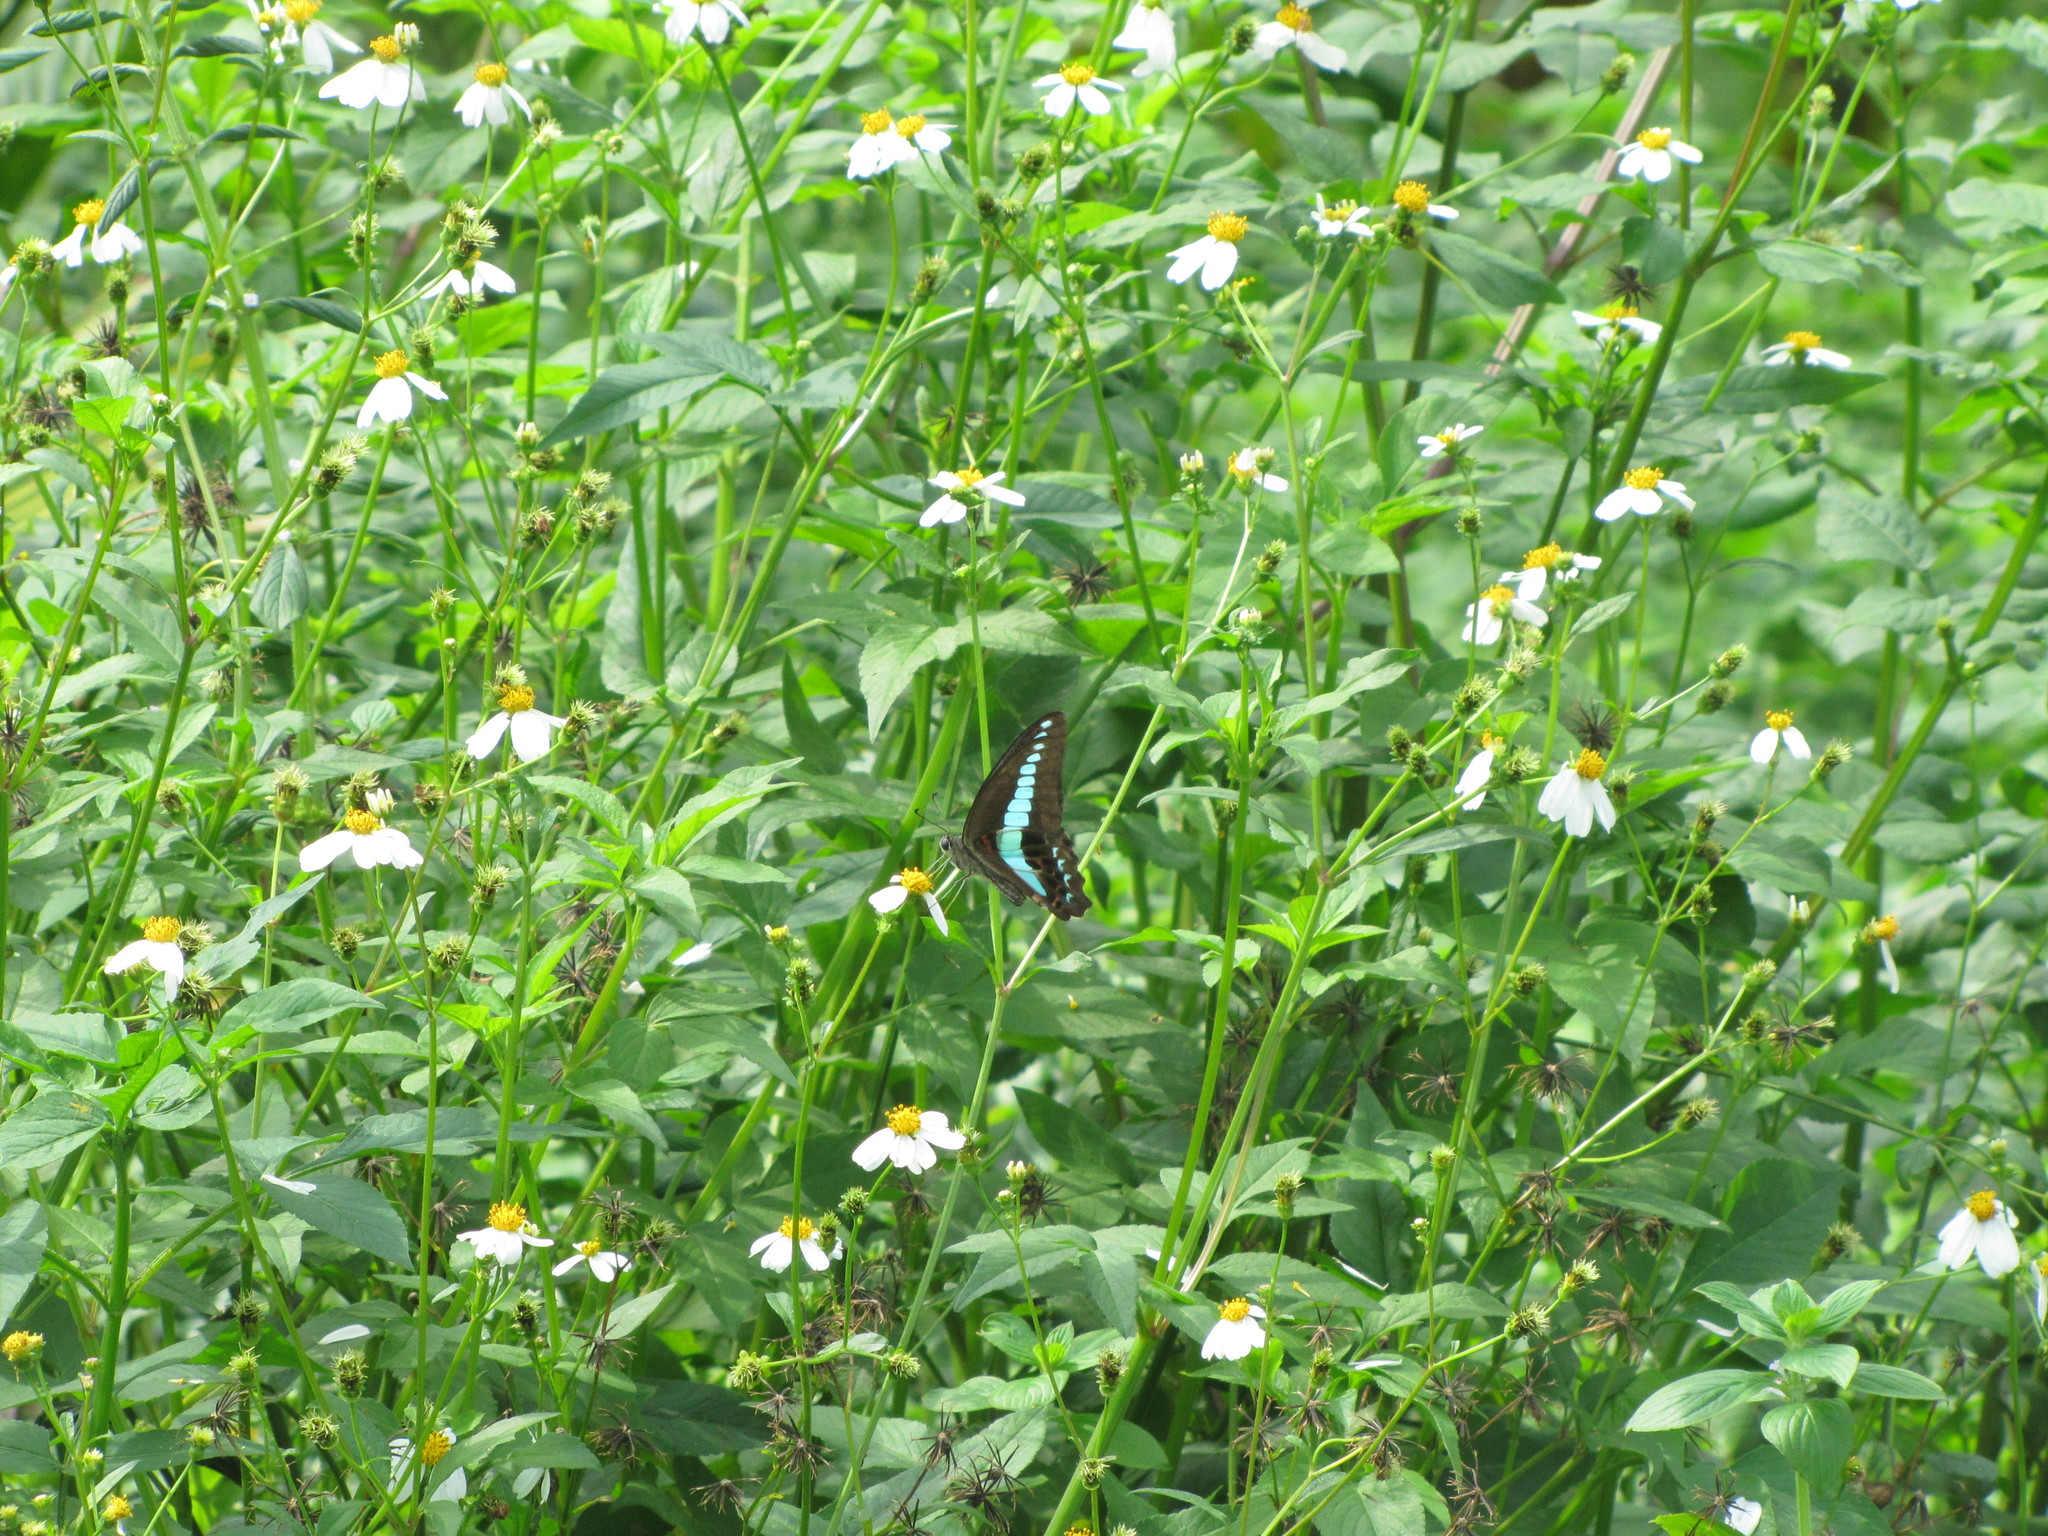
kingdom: Fungi
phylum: Ascomycota
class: Sordariomycetes
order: Microascales
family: Microascaceae
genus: Graphium
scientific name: Graphium sarpedon
